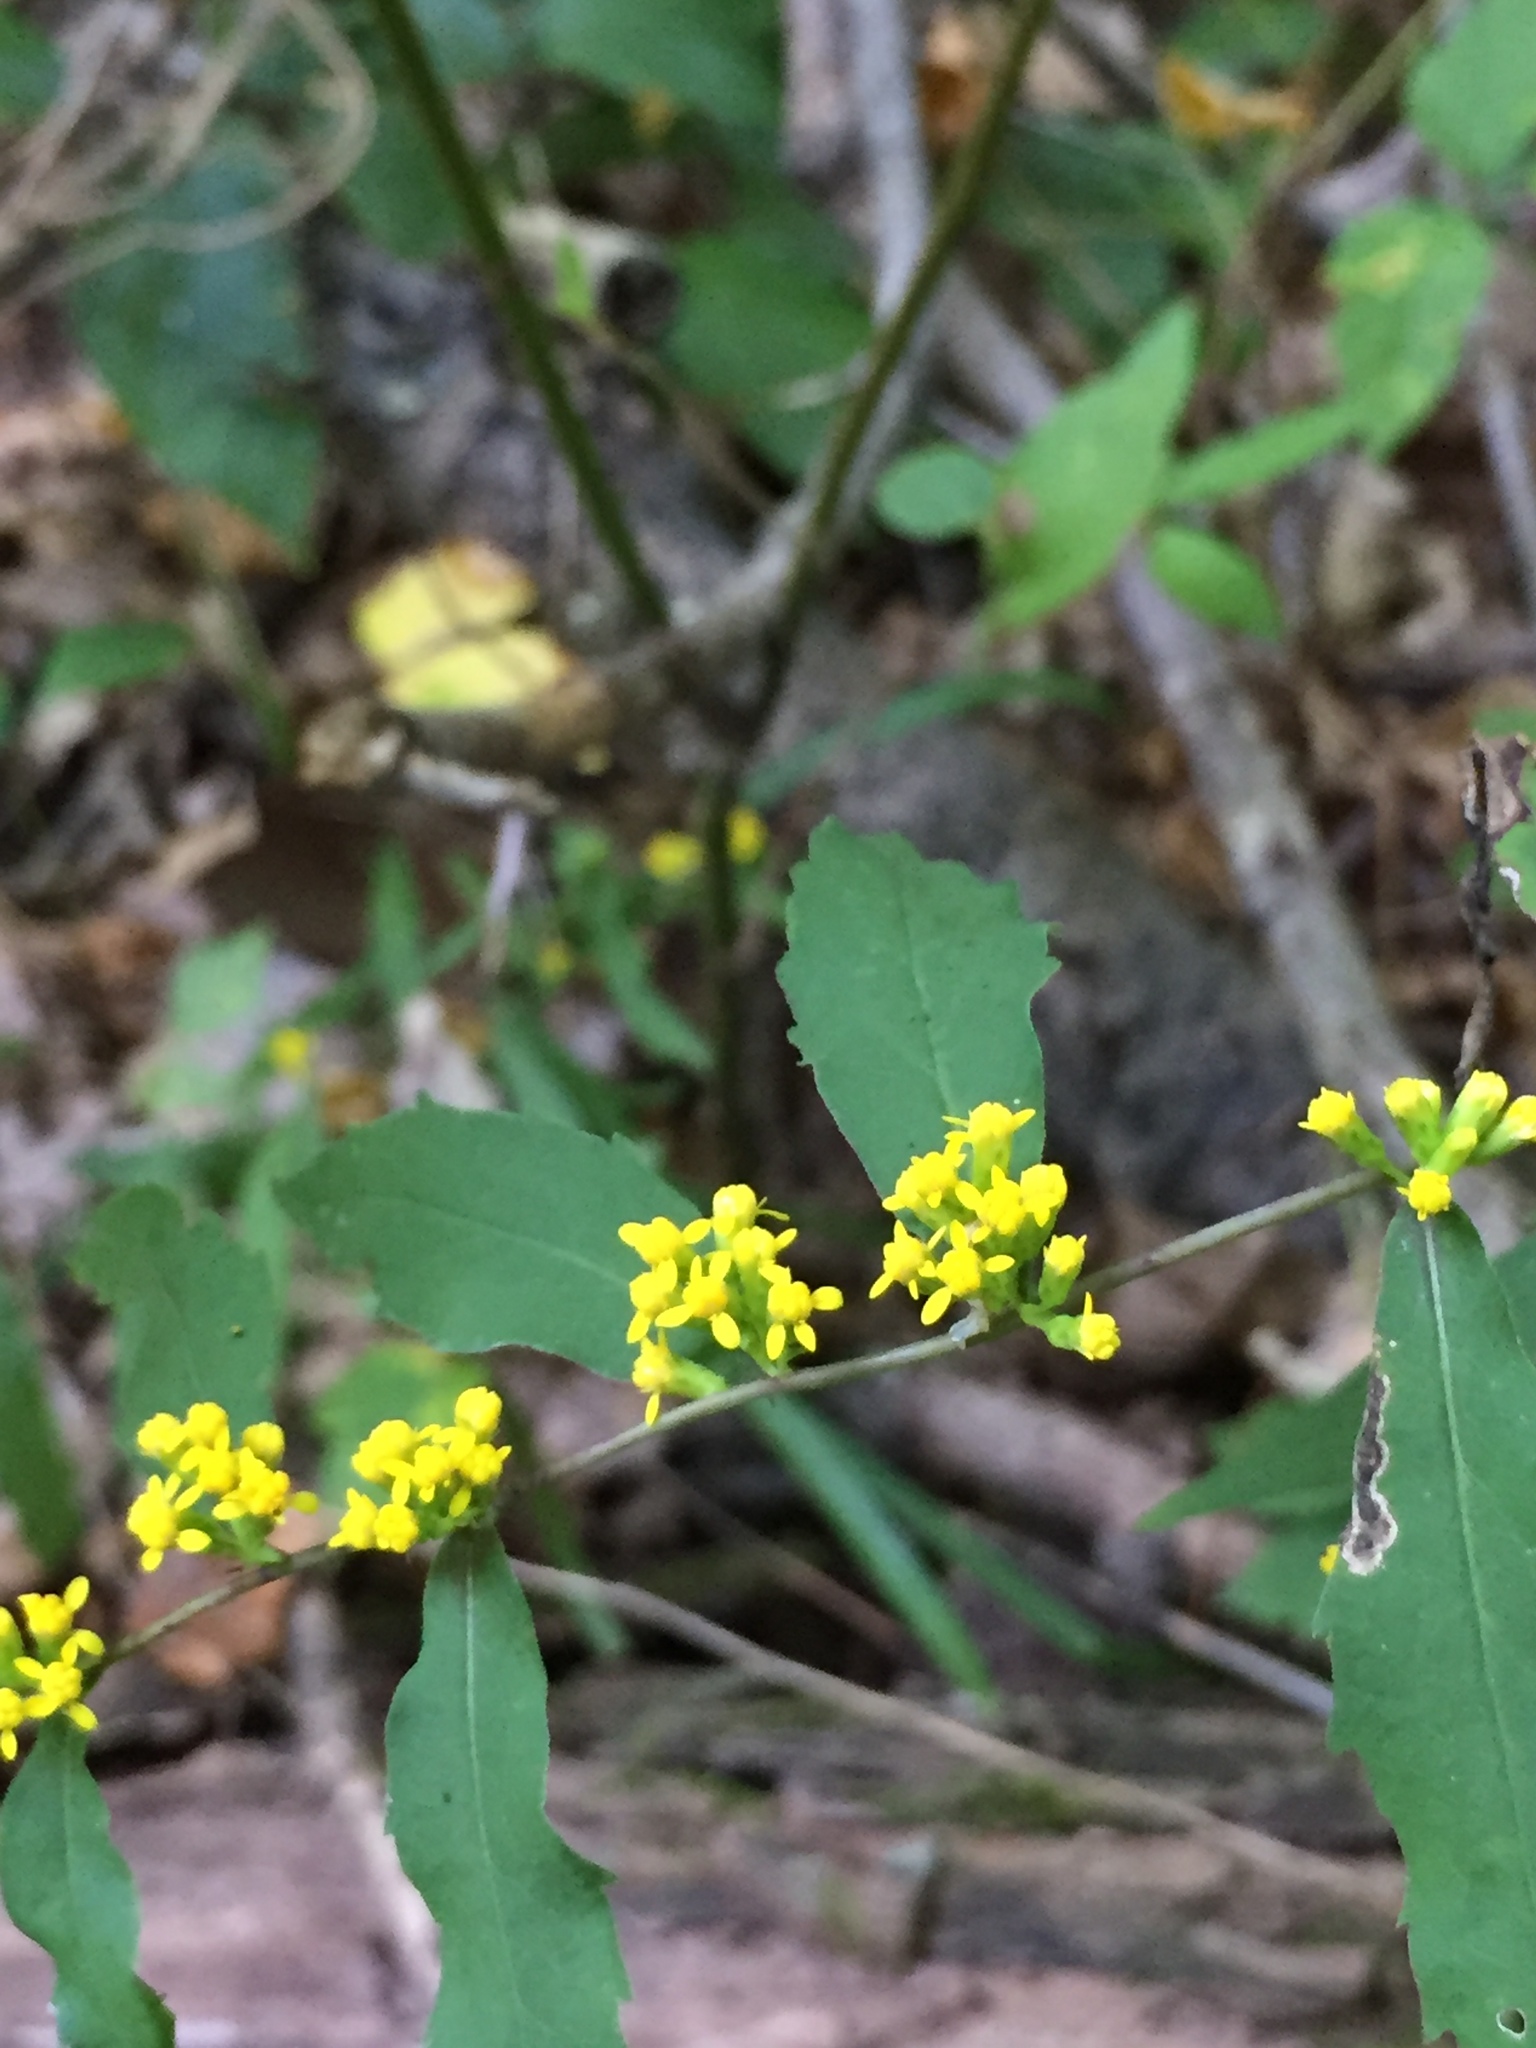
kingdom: Plantae
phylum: Tracheophyta
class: Magnoliopsida
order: Asterales
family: Asteraceae
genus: Solidago
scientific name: Solidago caesia
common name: Woodland goldenrod
